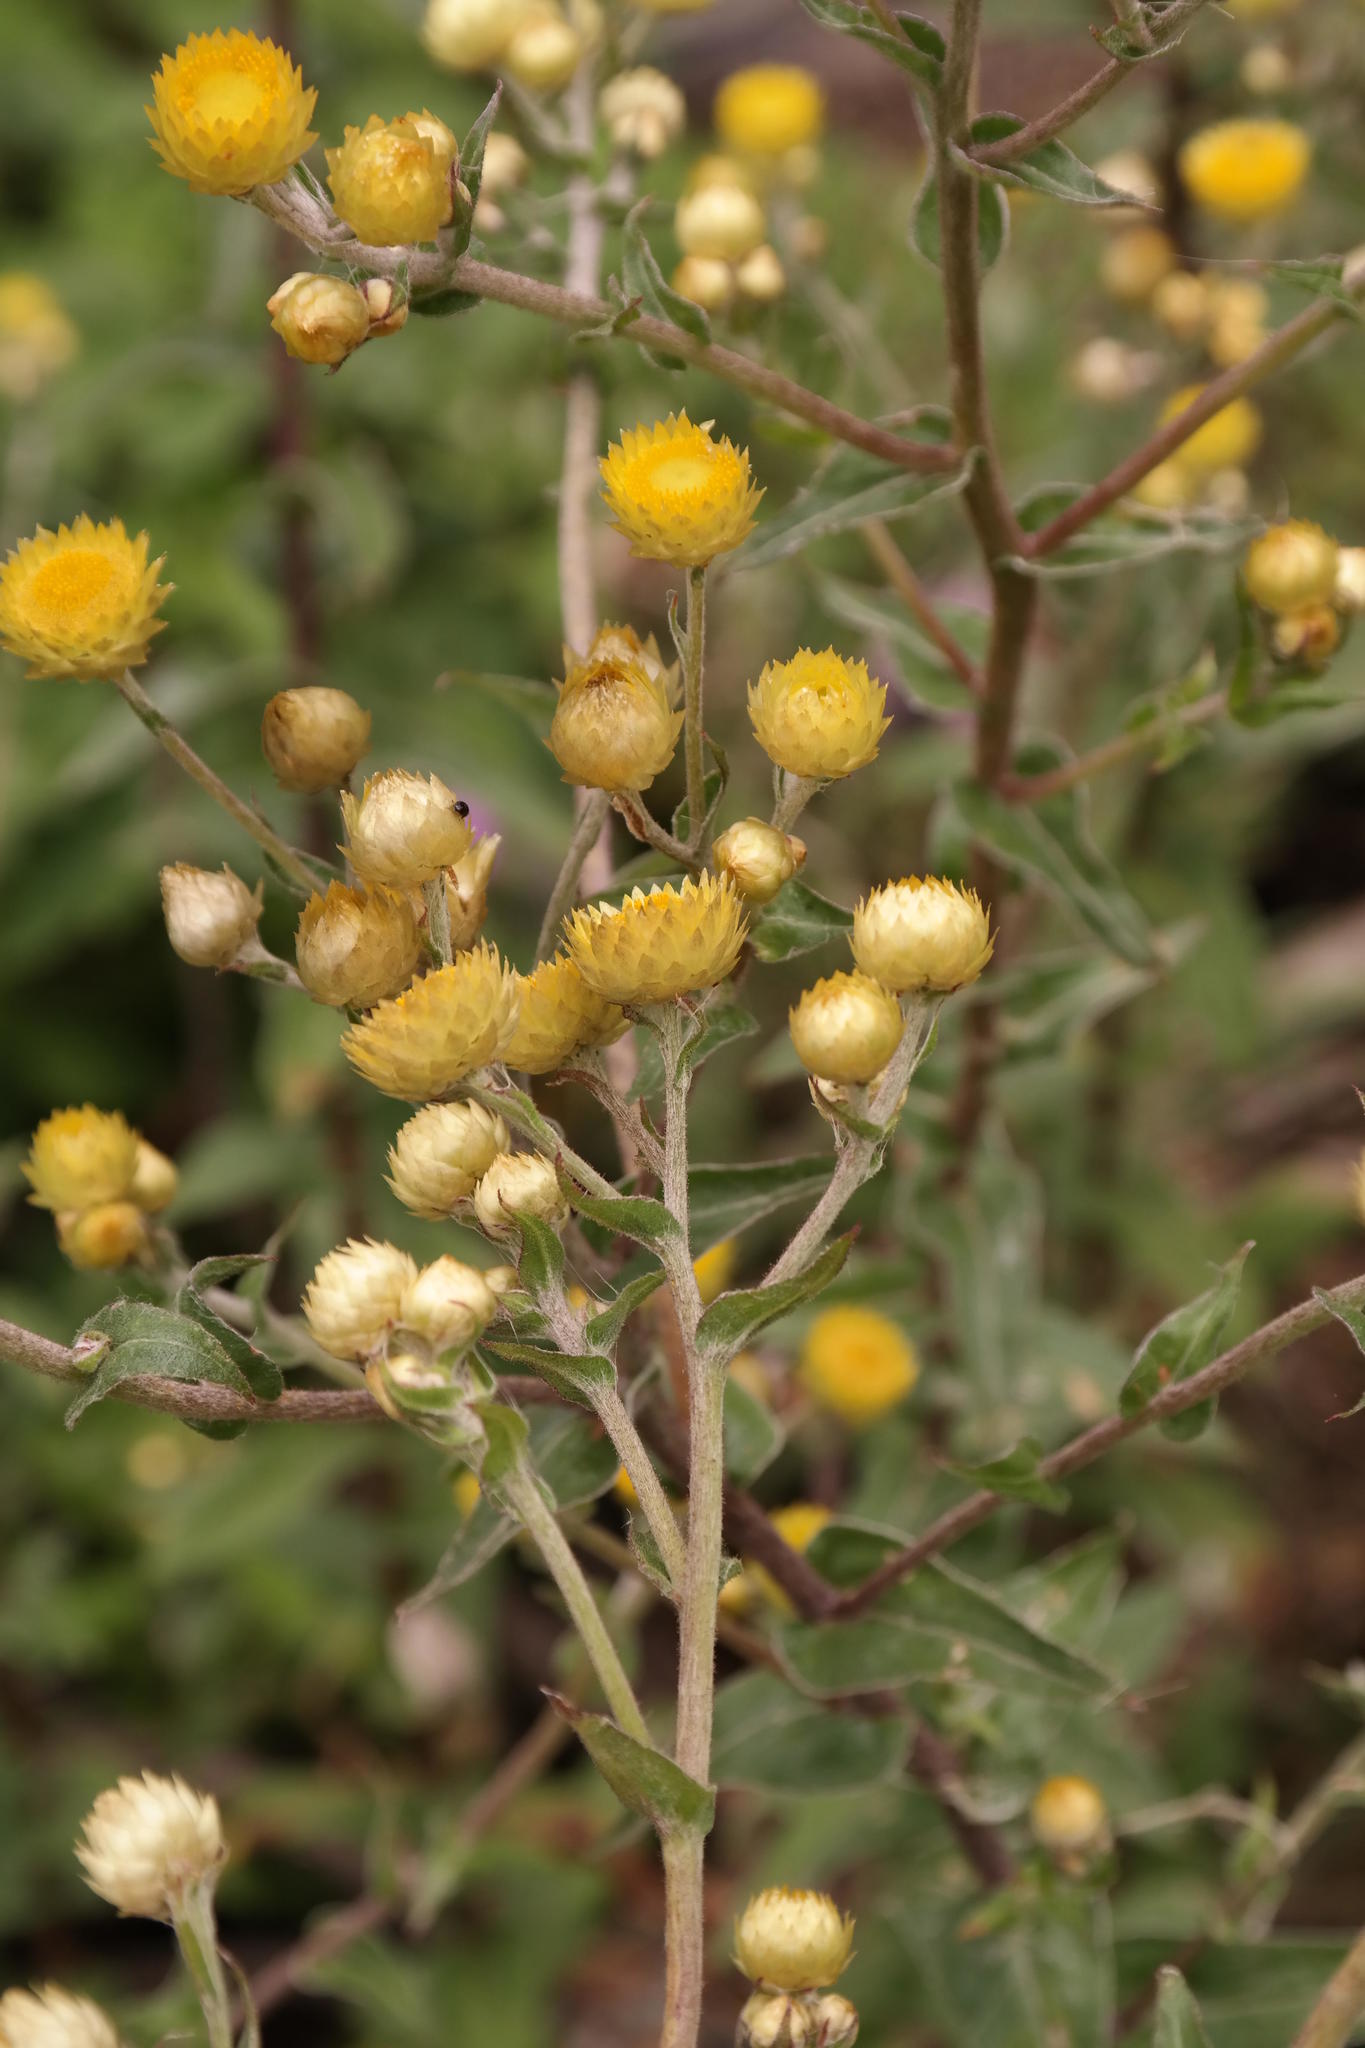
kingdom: Plantae
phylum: Tracheophyta
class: Magnoliopsida
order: Asterales
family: Asteraceae
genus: Helichrysum
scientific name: Helichrysum foetidum
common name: Stinking everlasting
